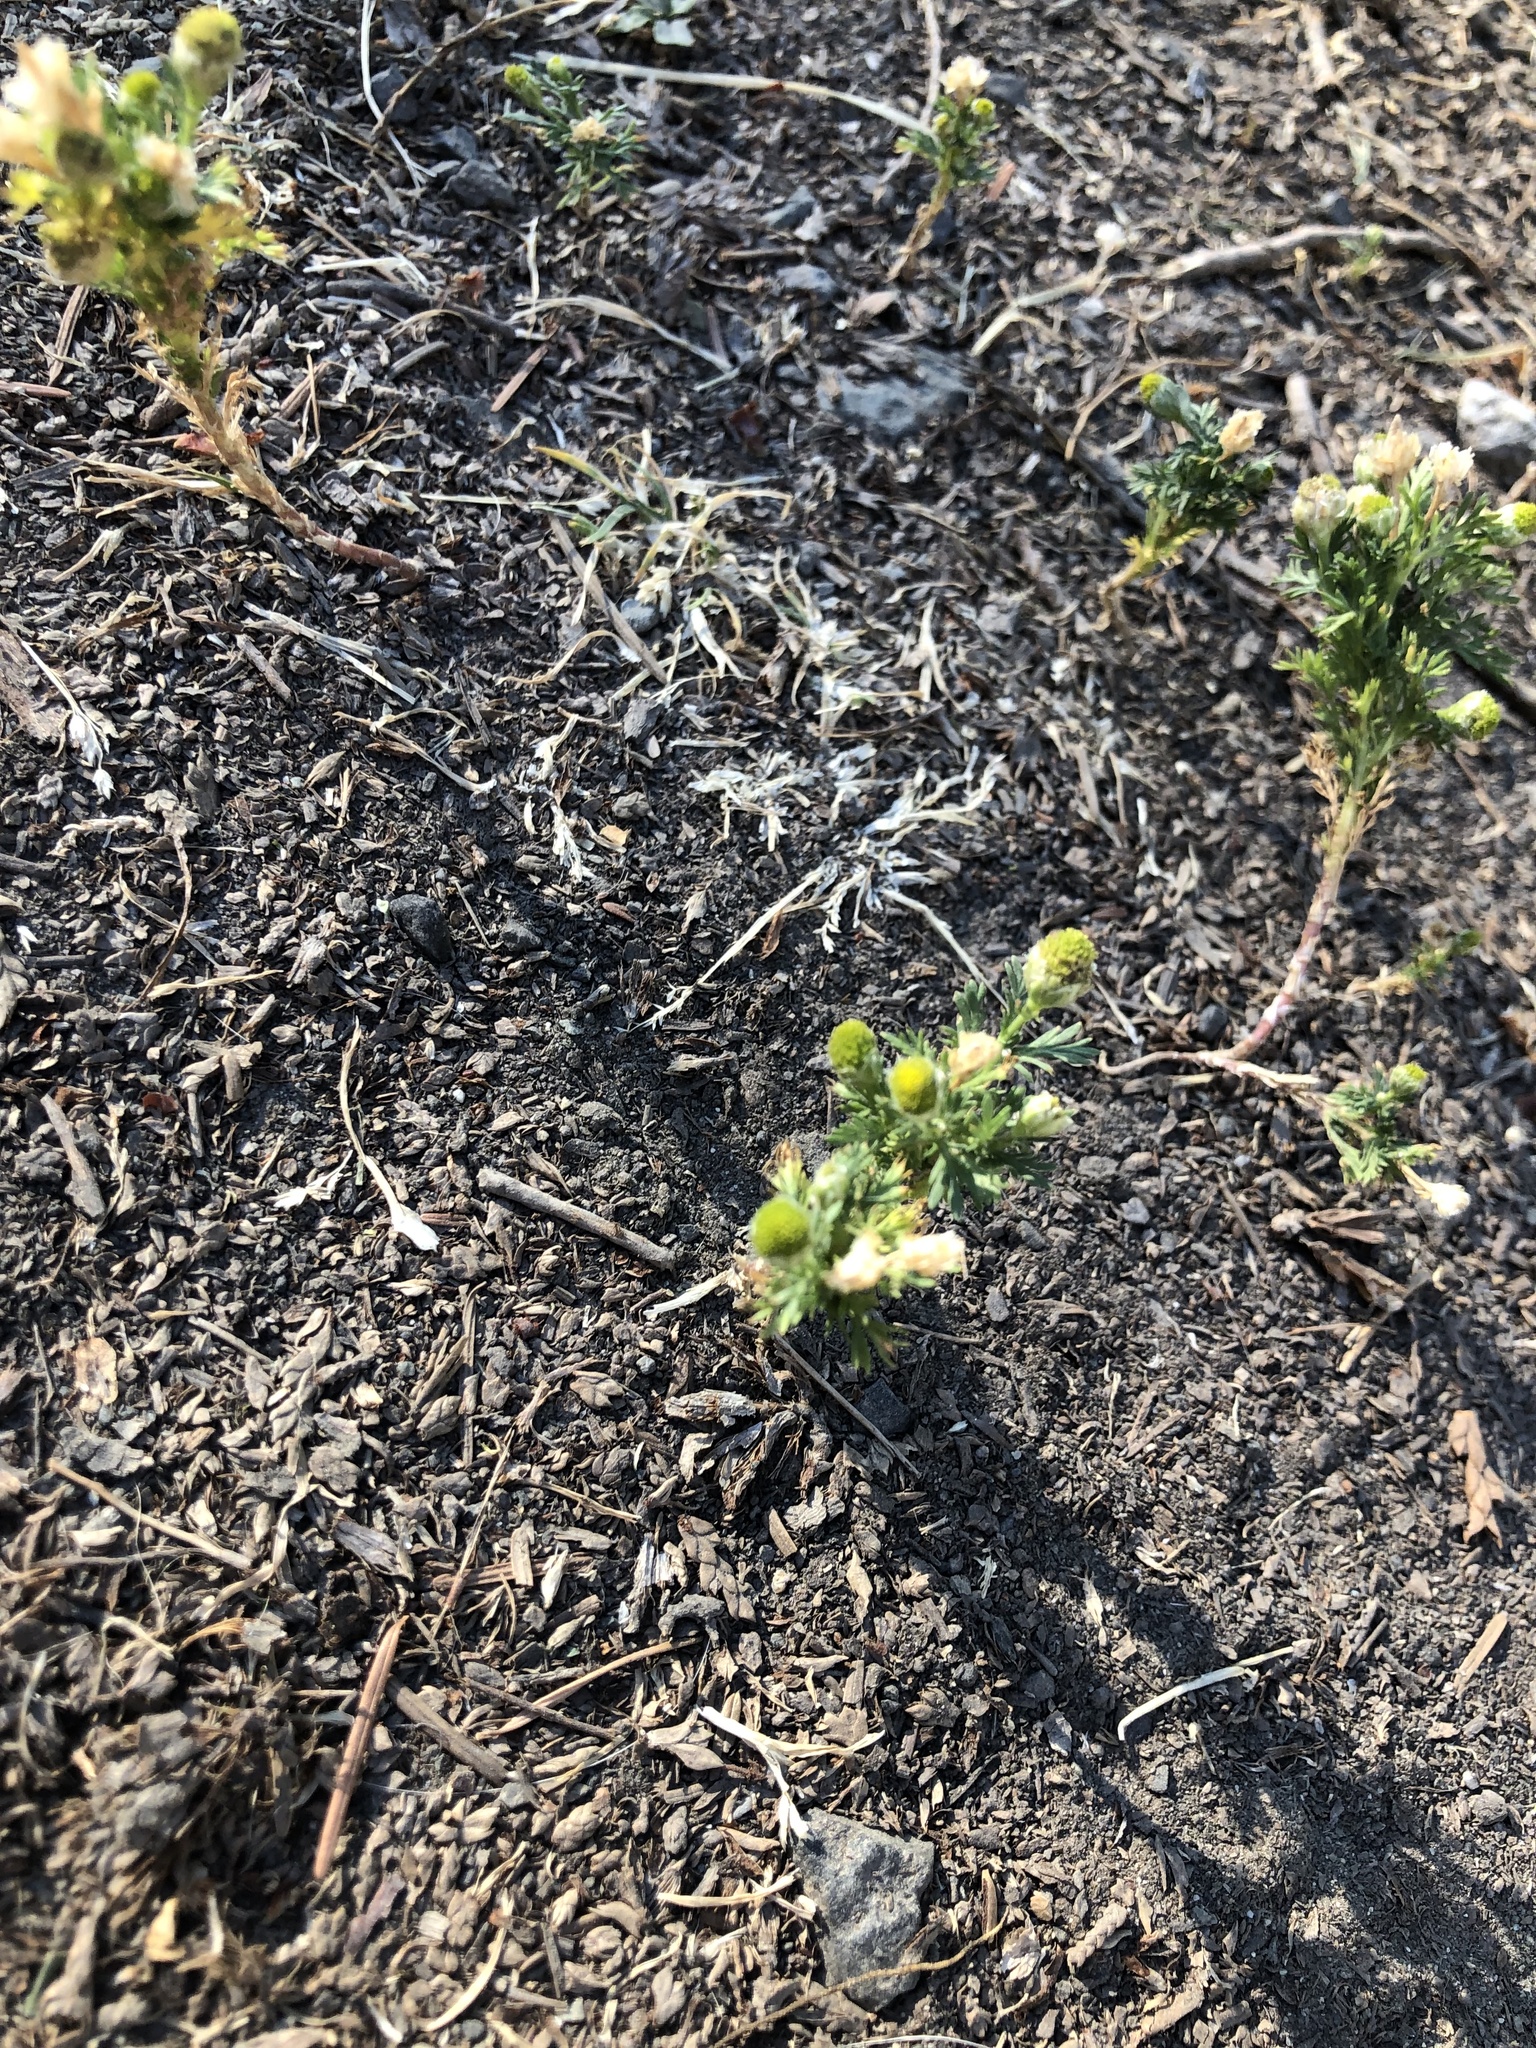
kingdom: Plantae
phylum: Tracheophyta
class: Magnoliopsida
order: Asterales
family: Asteraceae
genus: Matricaria
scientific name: Matricaria discoidea
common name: Disc mayweed
